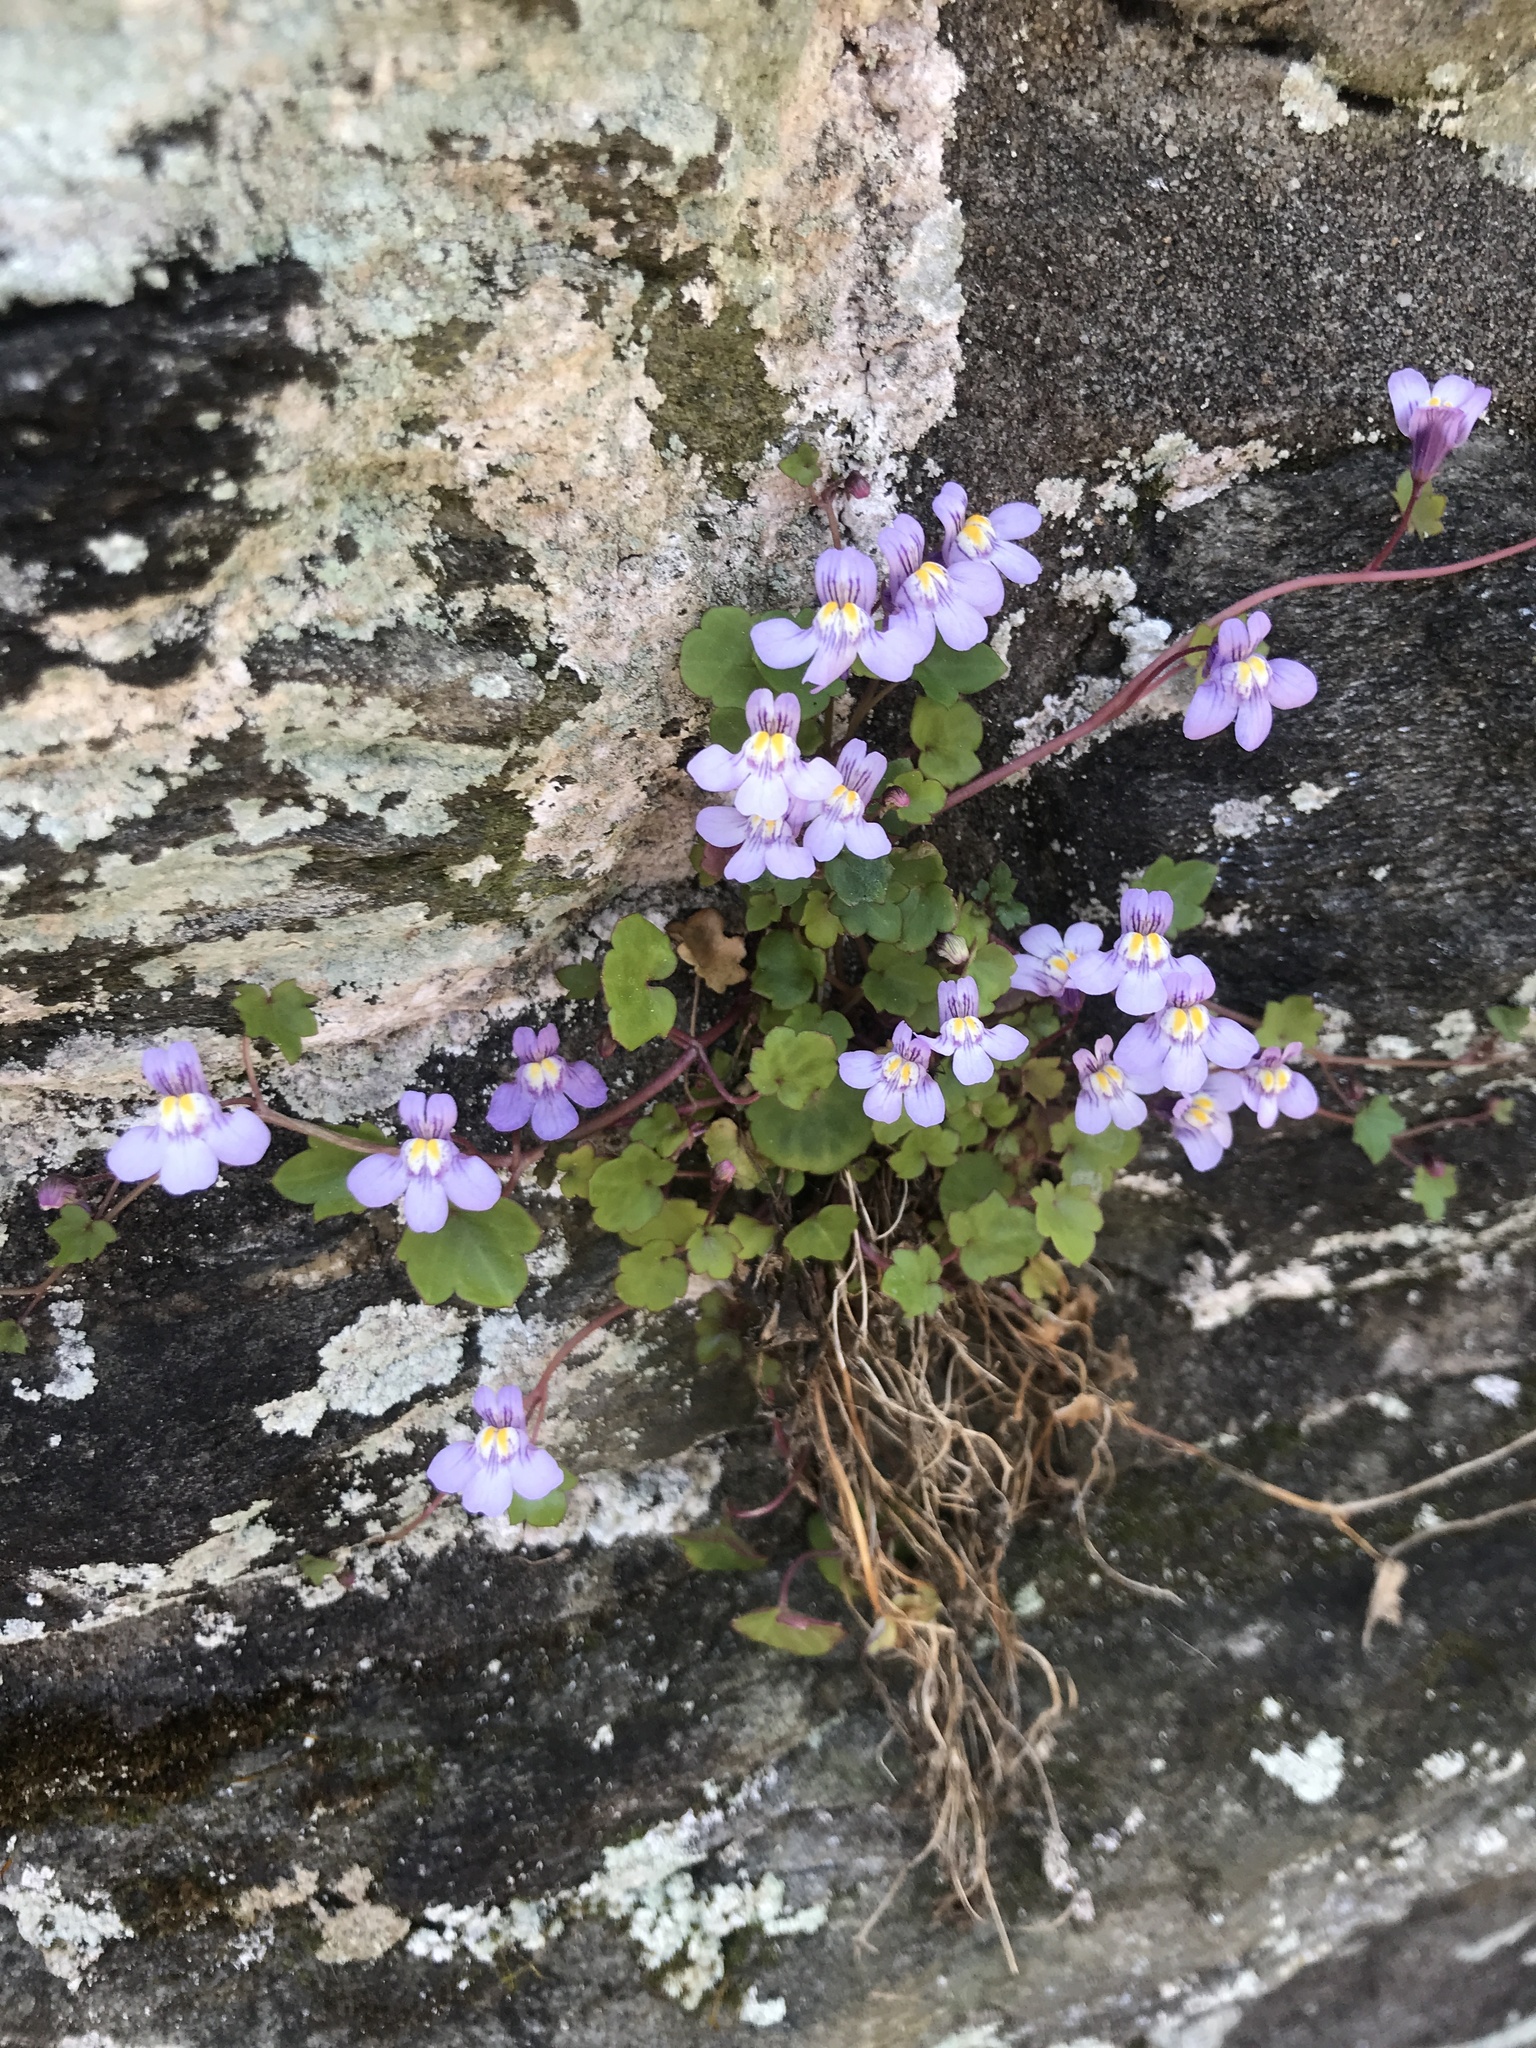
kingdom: Plantae
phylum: Tracheophyta
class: Magnoliopsida
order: Lamiales
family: Plantaginaceae
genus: Cymbalaria
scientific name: Cymbalaria muralis
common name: Ivy-leaved toadflax
